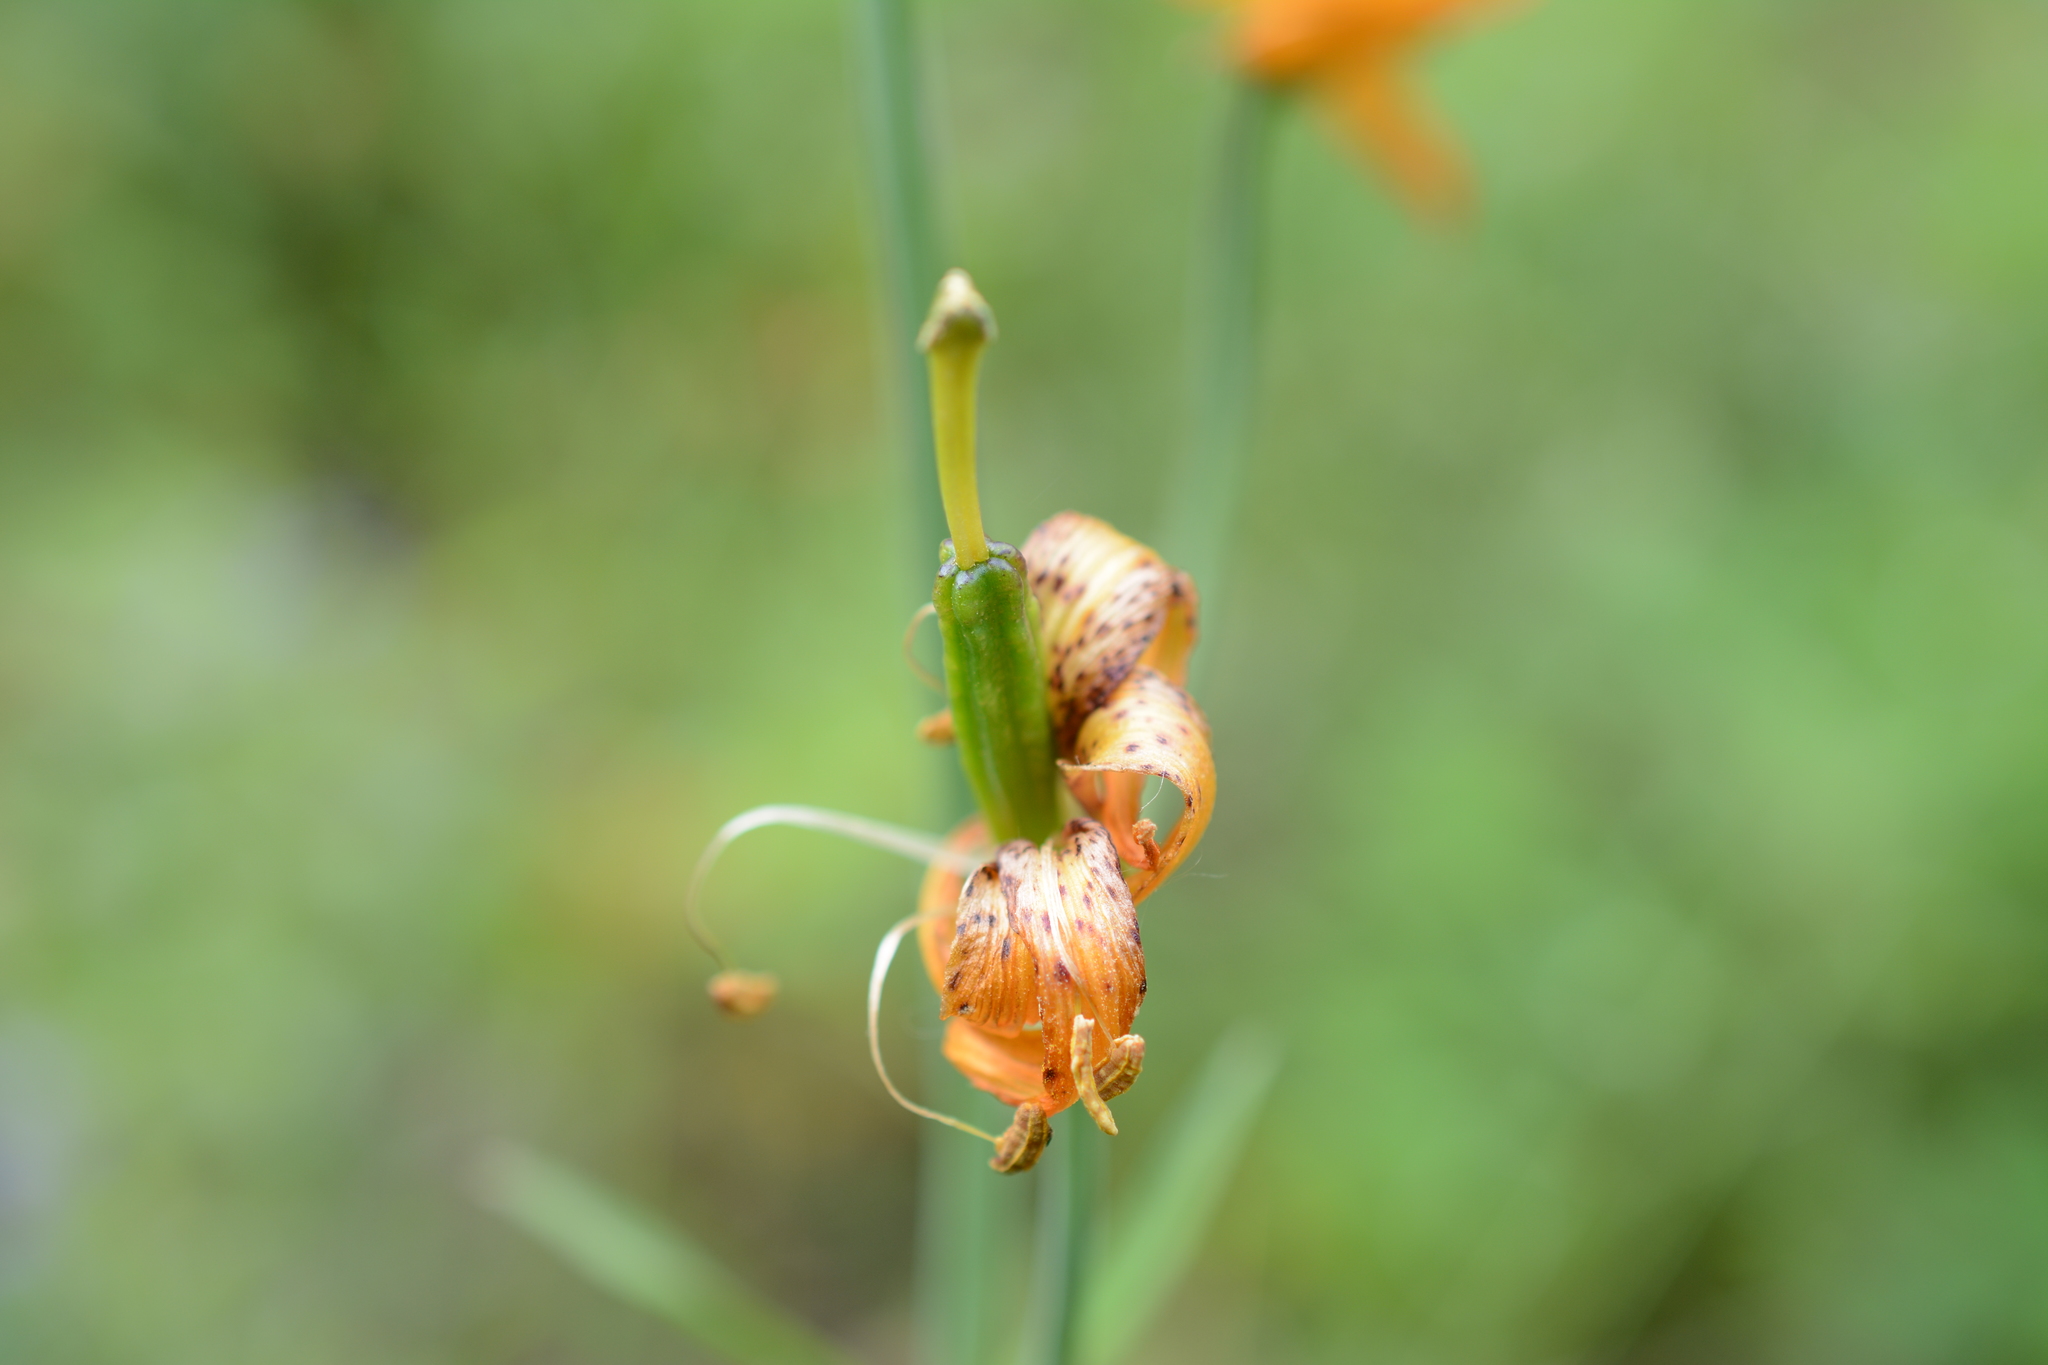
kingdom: Plantae
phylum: Tracheophyta
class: Liliopsida
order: Liliales
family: Liliaceae
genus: Lilium
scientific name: Lilium columbianum
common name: Columbia lily
